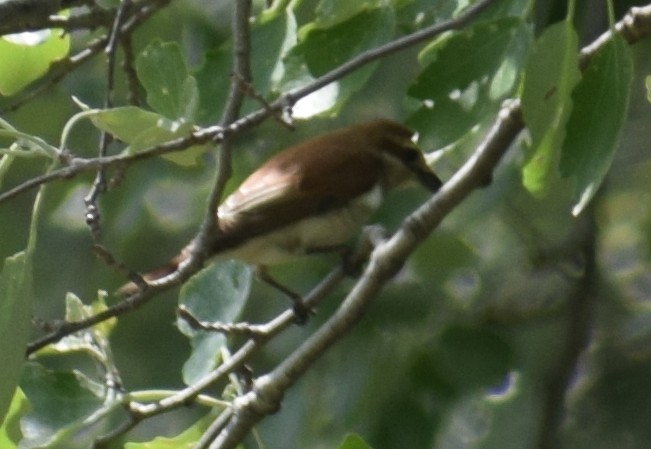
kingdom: Animalia
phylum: Chordata
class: Aves
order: Passeriformes
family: Laniidae
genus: Lanius
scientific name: Lanius collurio
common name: Red-backed shrike
